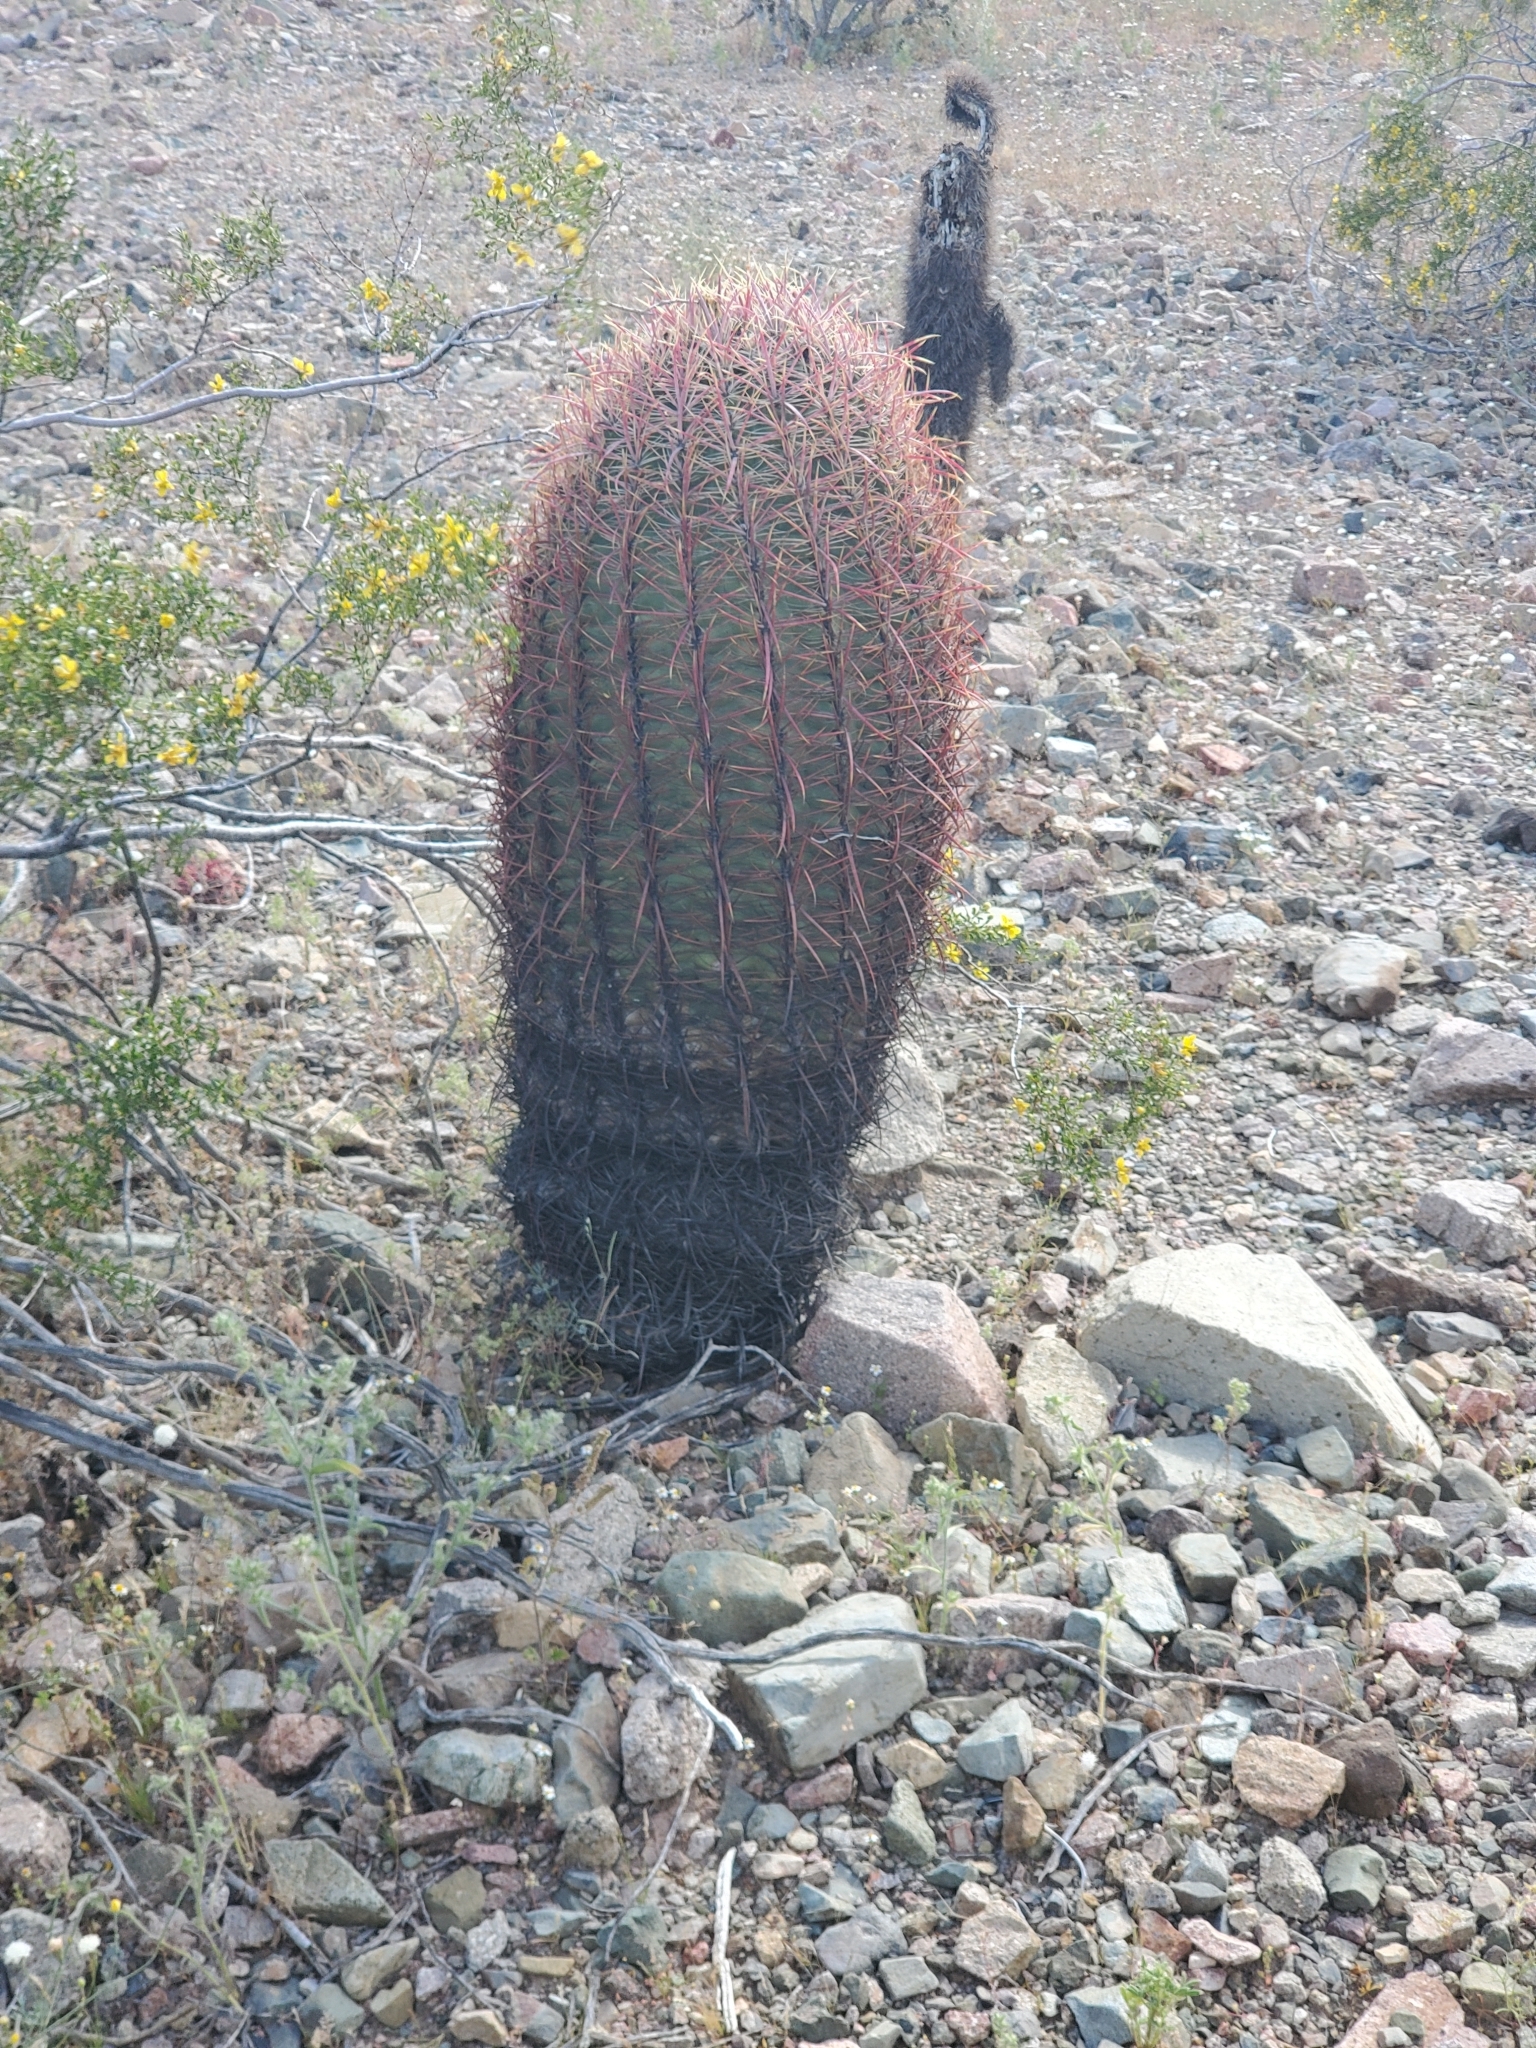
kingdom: Plantae
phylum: Tracheophyta
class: Magnoliopsida
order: Caryophyllales
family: Cactaceae
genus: Ferocactus
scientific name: Ferocactus cylindraceus
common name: California barrel cactus
